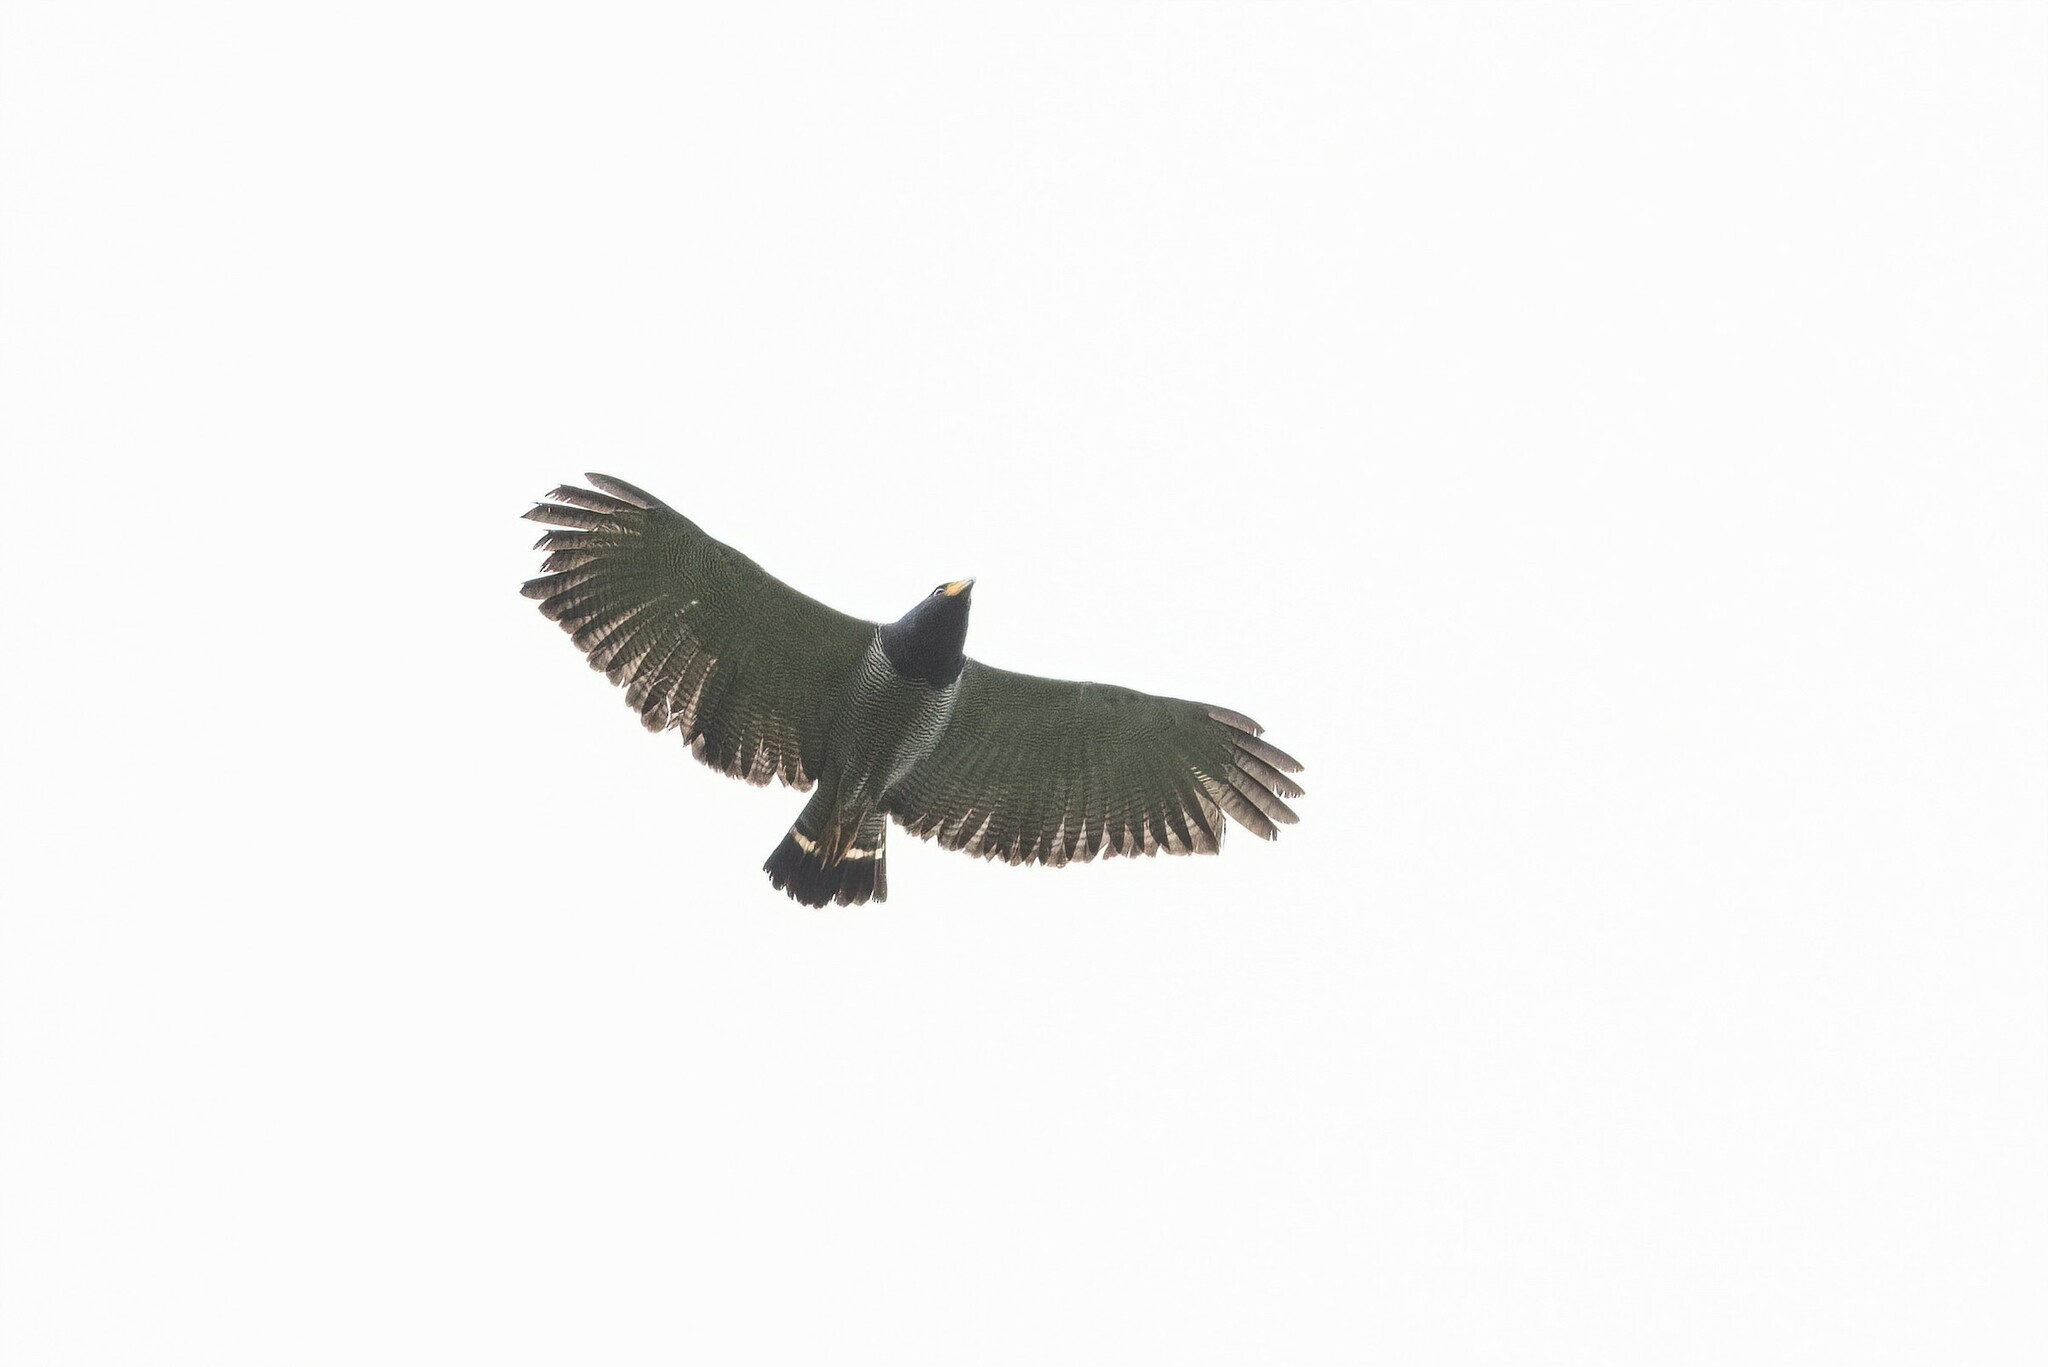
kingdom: Animalia
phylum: Chordata
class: Aves
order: Accipitriformes
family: Accipitridae
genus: Leucopternis
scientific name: Leucopternis princeps
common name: Barred hawk
